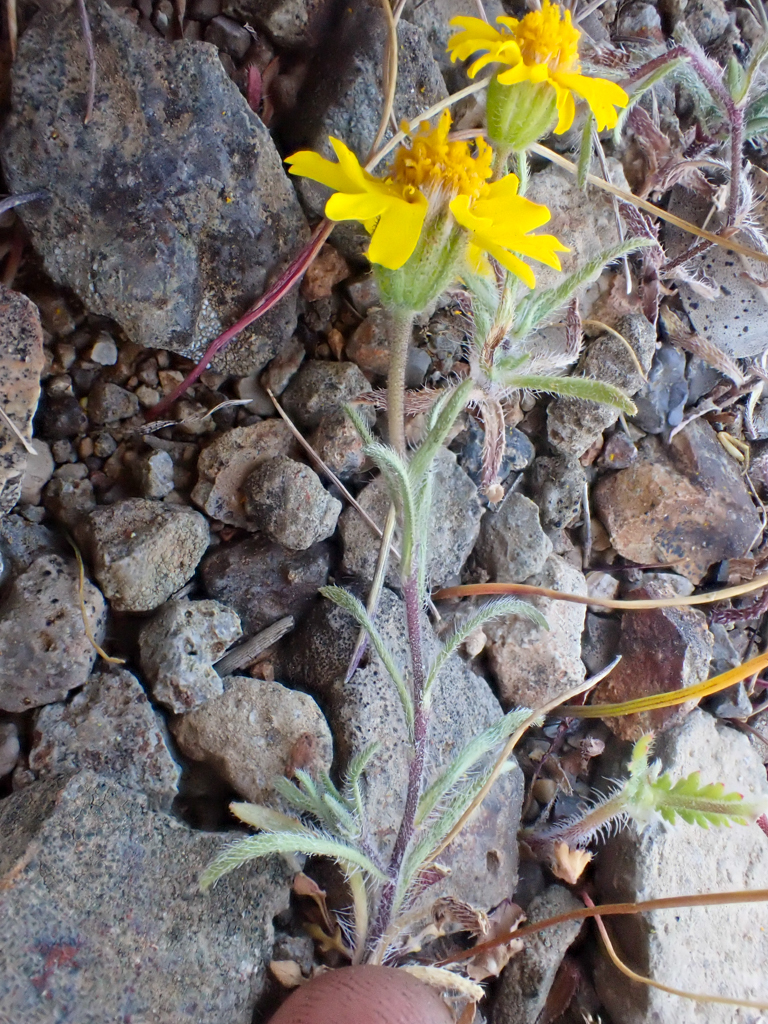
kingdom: Plantae
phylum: Tracheophyta
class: Magnoliopsida
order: Asterales
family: Asteraceae
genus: Harmonia
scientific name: Harmonia nutans
